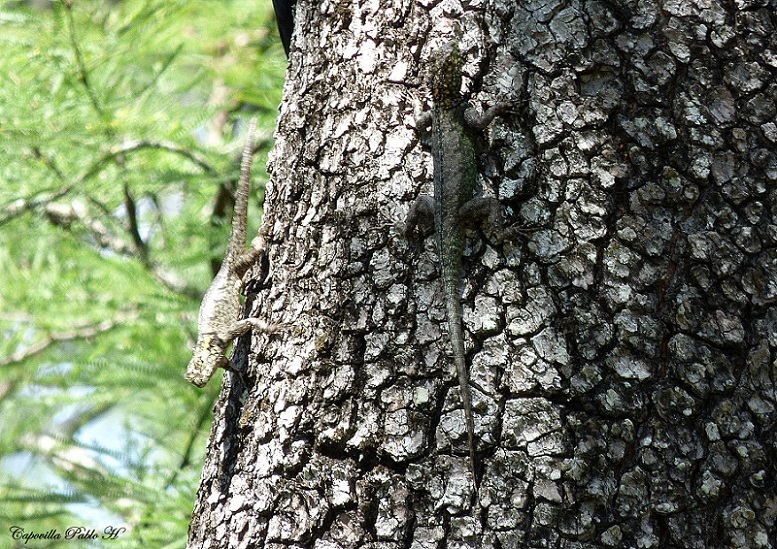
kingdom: Animalia
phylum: Chordata
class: Squamata
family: Tropiduridae
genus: Tropidurus
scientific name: Tropidurus guarani
